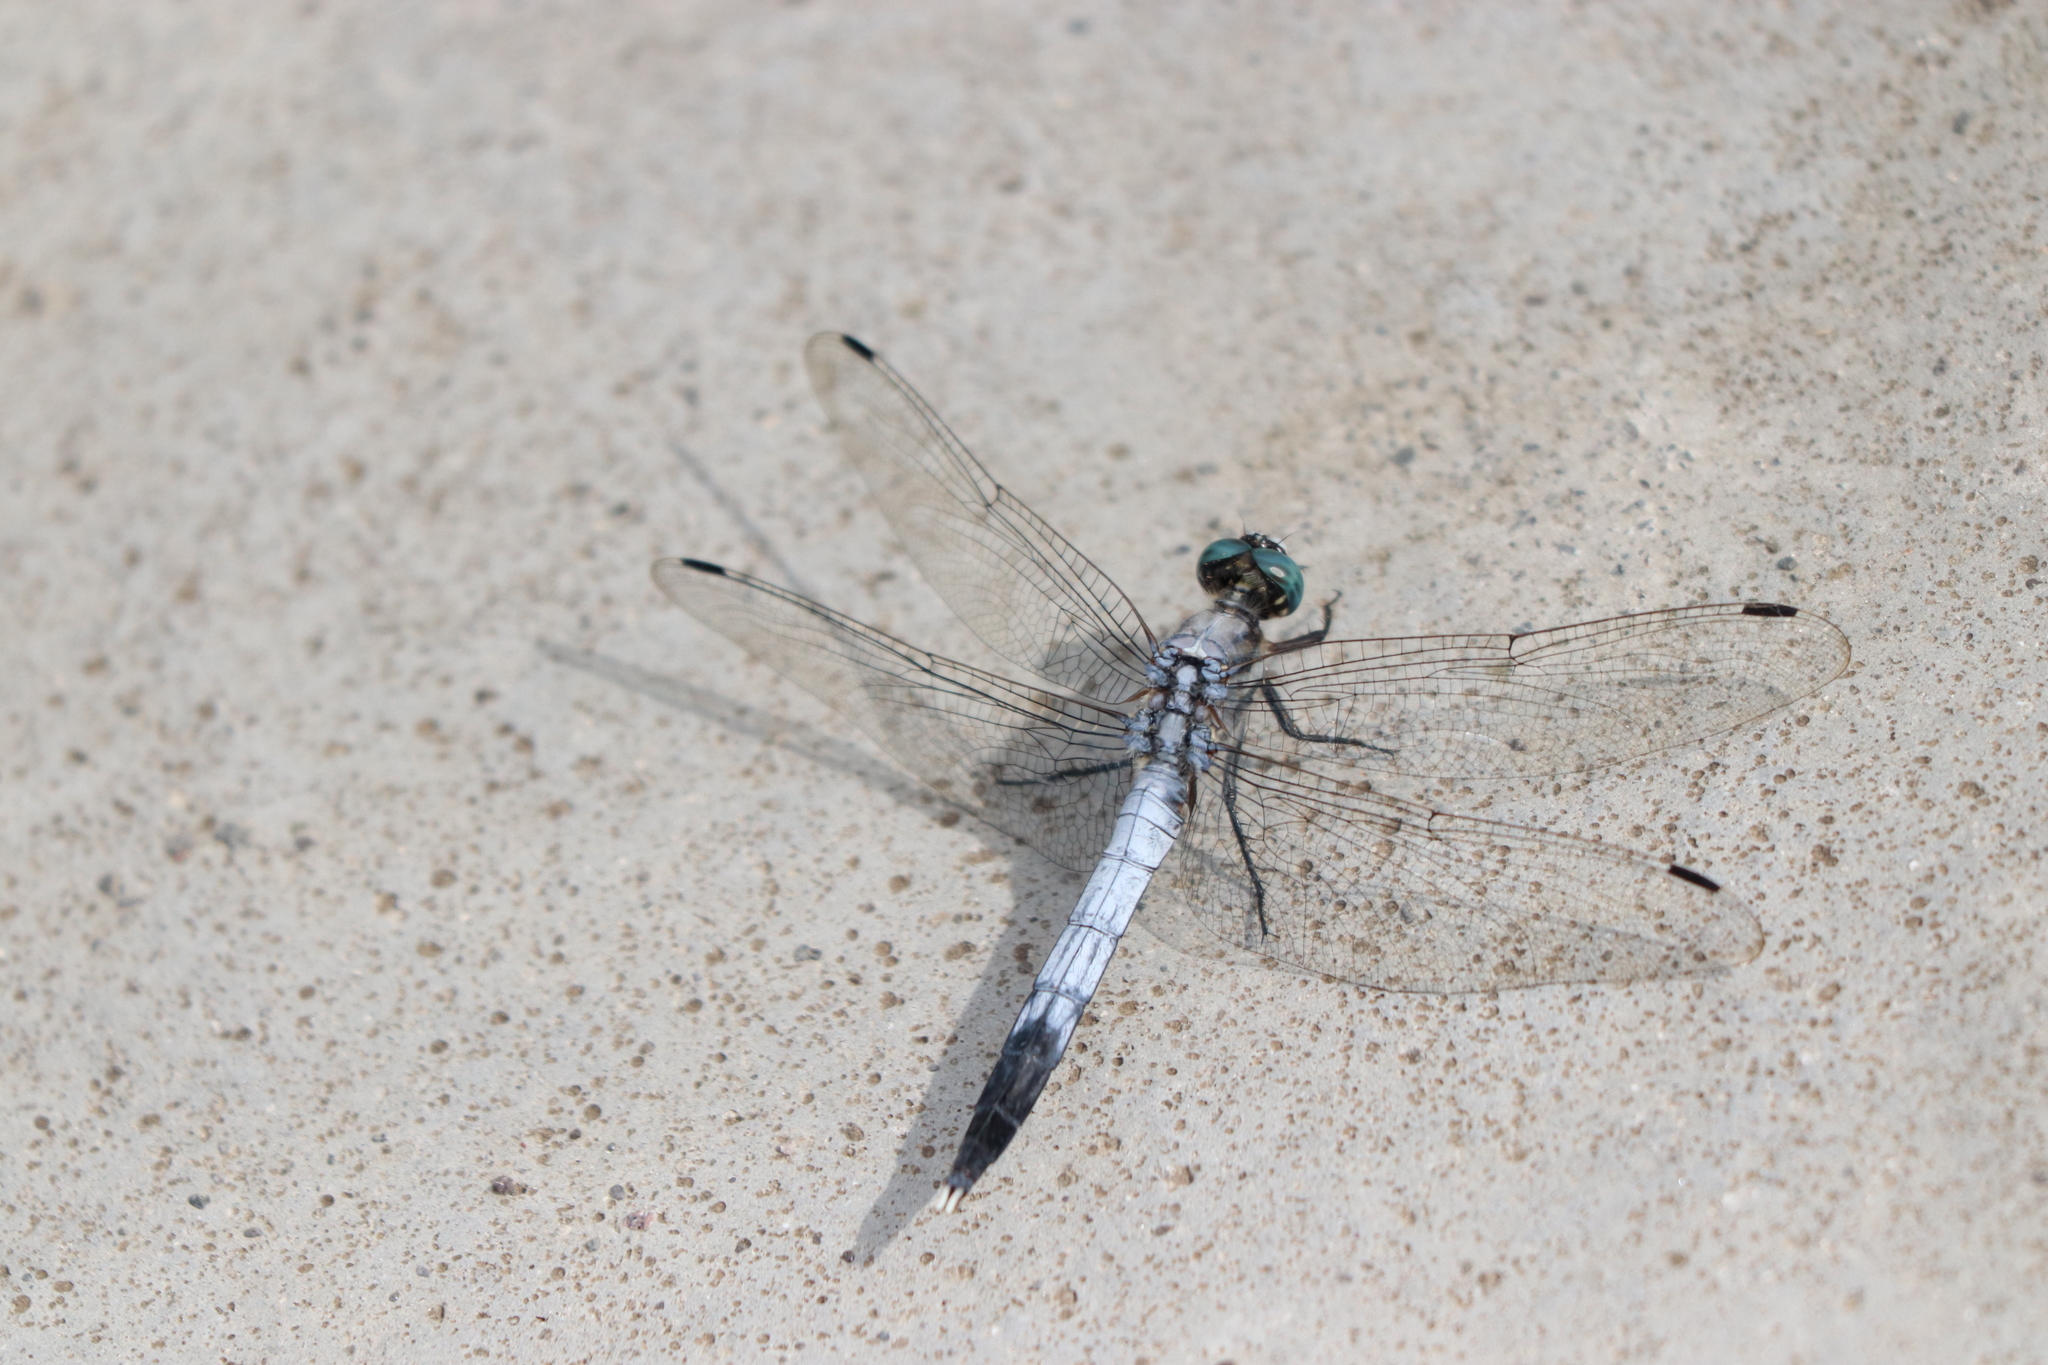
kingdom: Animalia
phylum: Arthropoda
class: Insecta
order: Odonata
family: Libellulidae
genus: Orthetrum
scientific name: Orthetrum albistylum
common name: White-tailed skimmer
